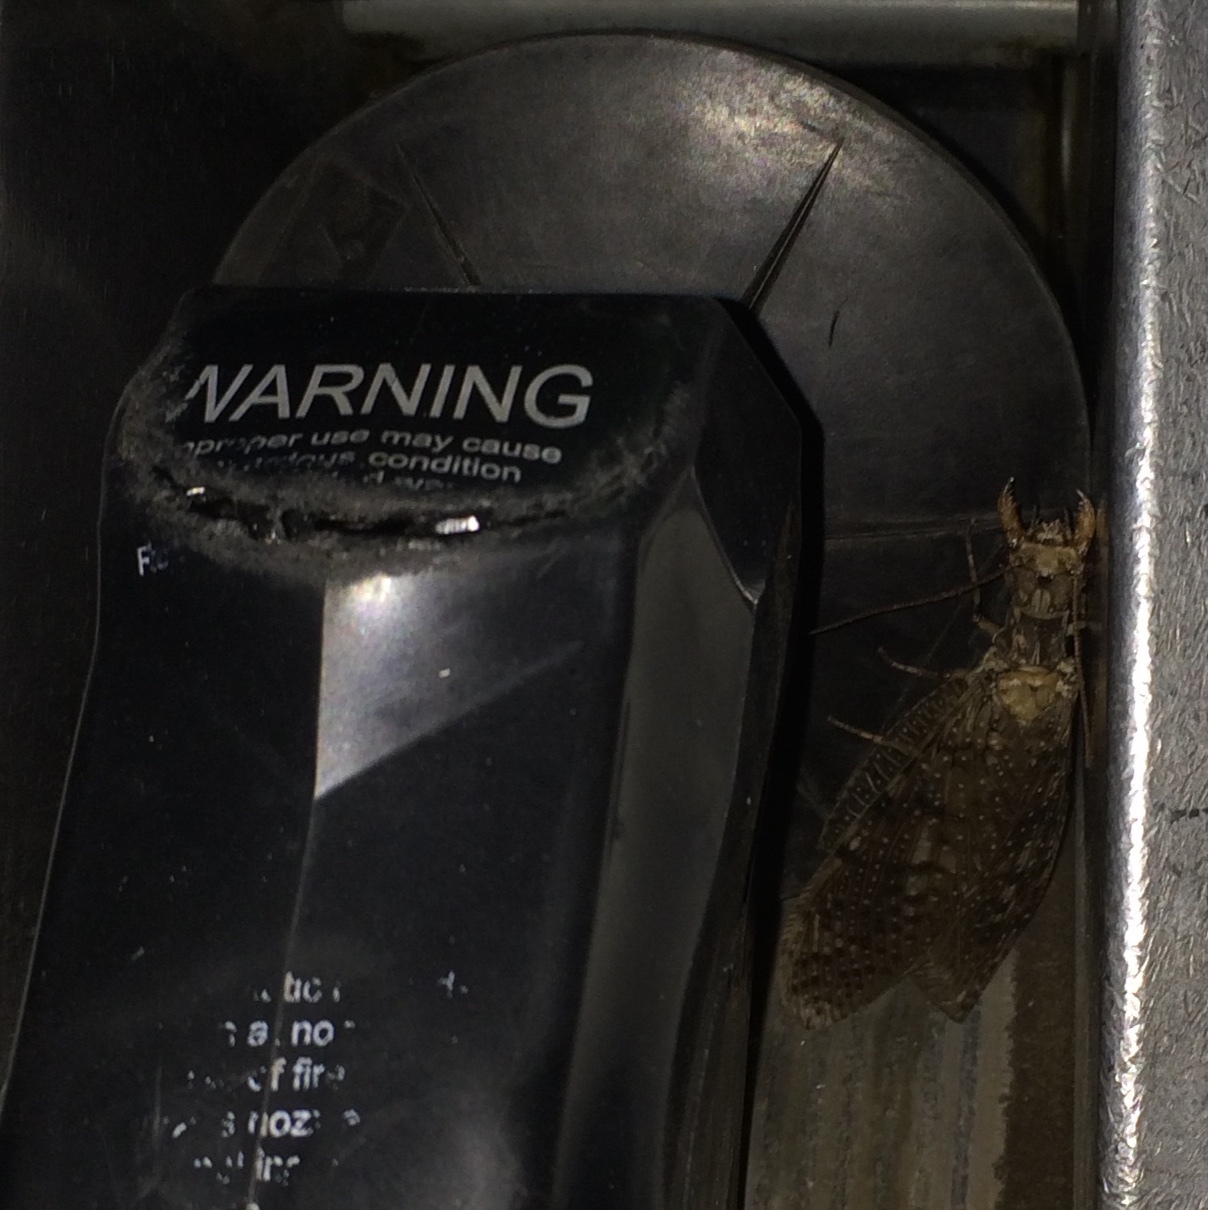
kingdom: Animalia
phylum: Arthropoda
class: Insecta
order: Megaloptera
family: Corydalidae
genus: Corydalus
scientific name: Corydalus cornutus
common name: Dobsonfly
